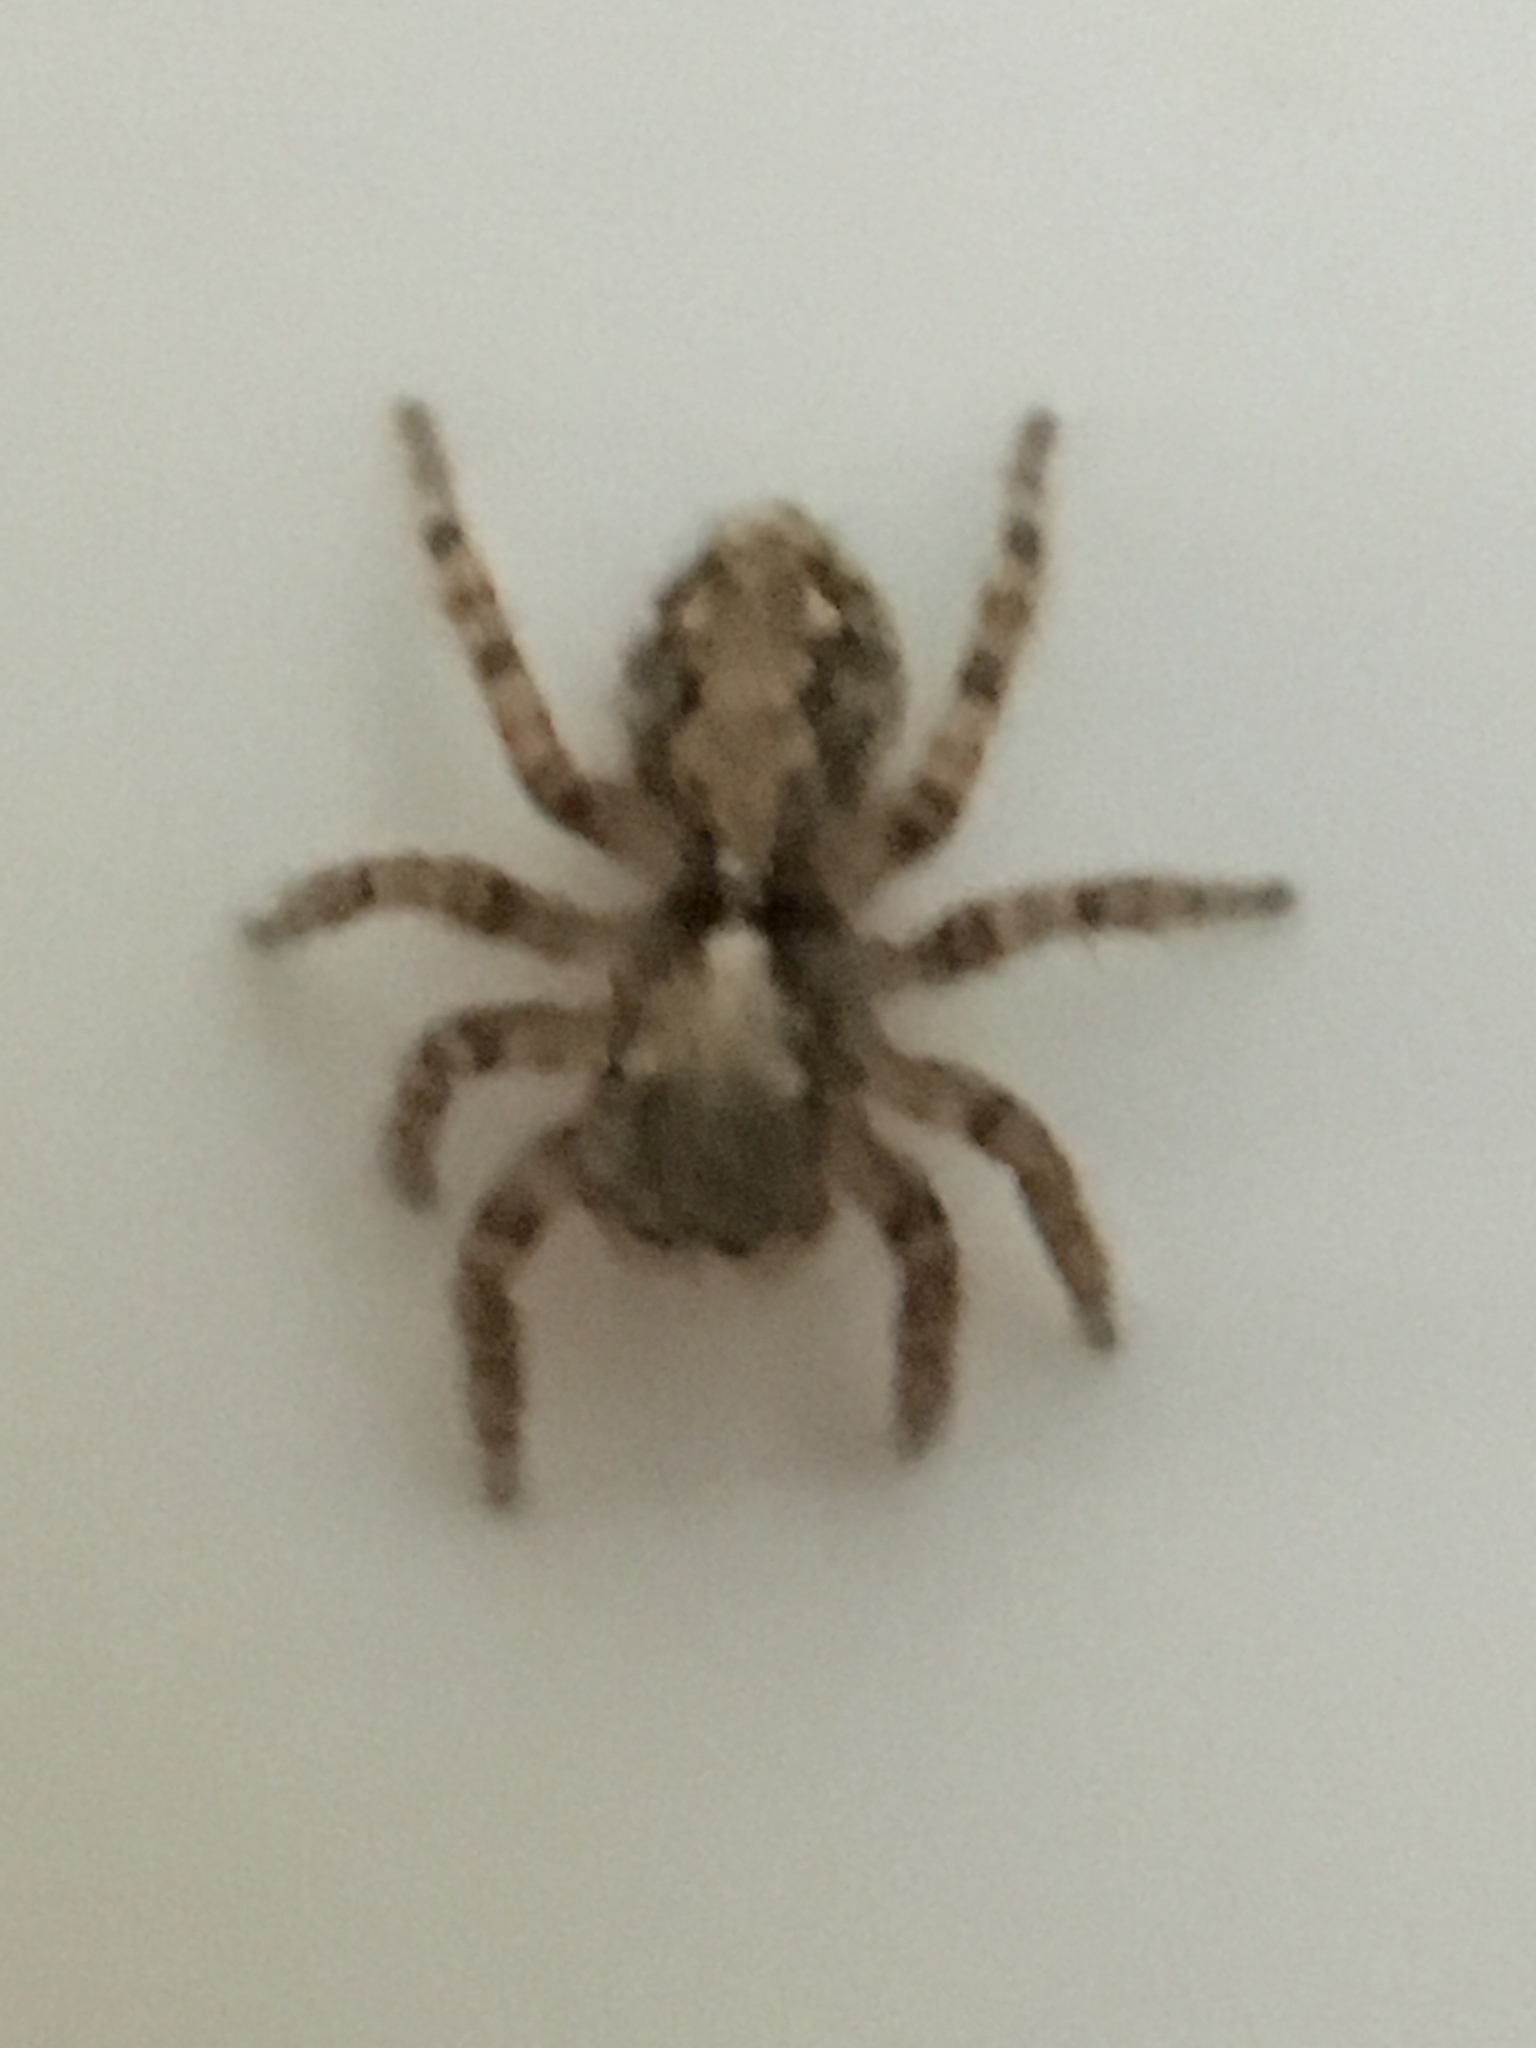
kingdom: Animalia
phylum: Arthropoda
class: Arachnida
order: Araneae
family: Salticidae
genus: Pseudeuophrys
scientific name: Pseudeuophrys lanigera
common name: Jumping spider
